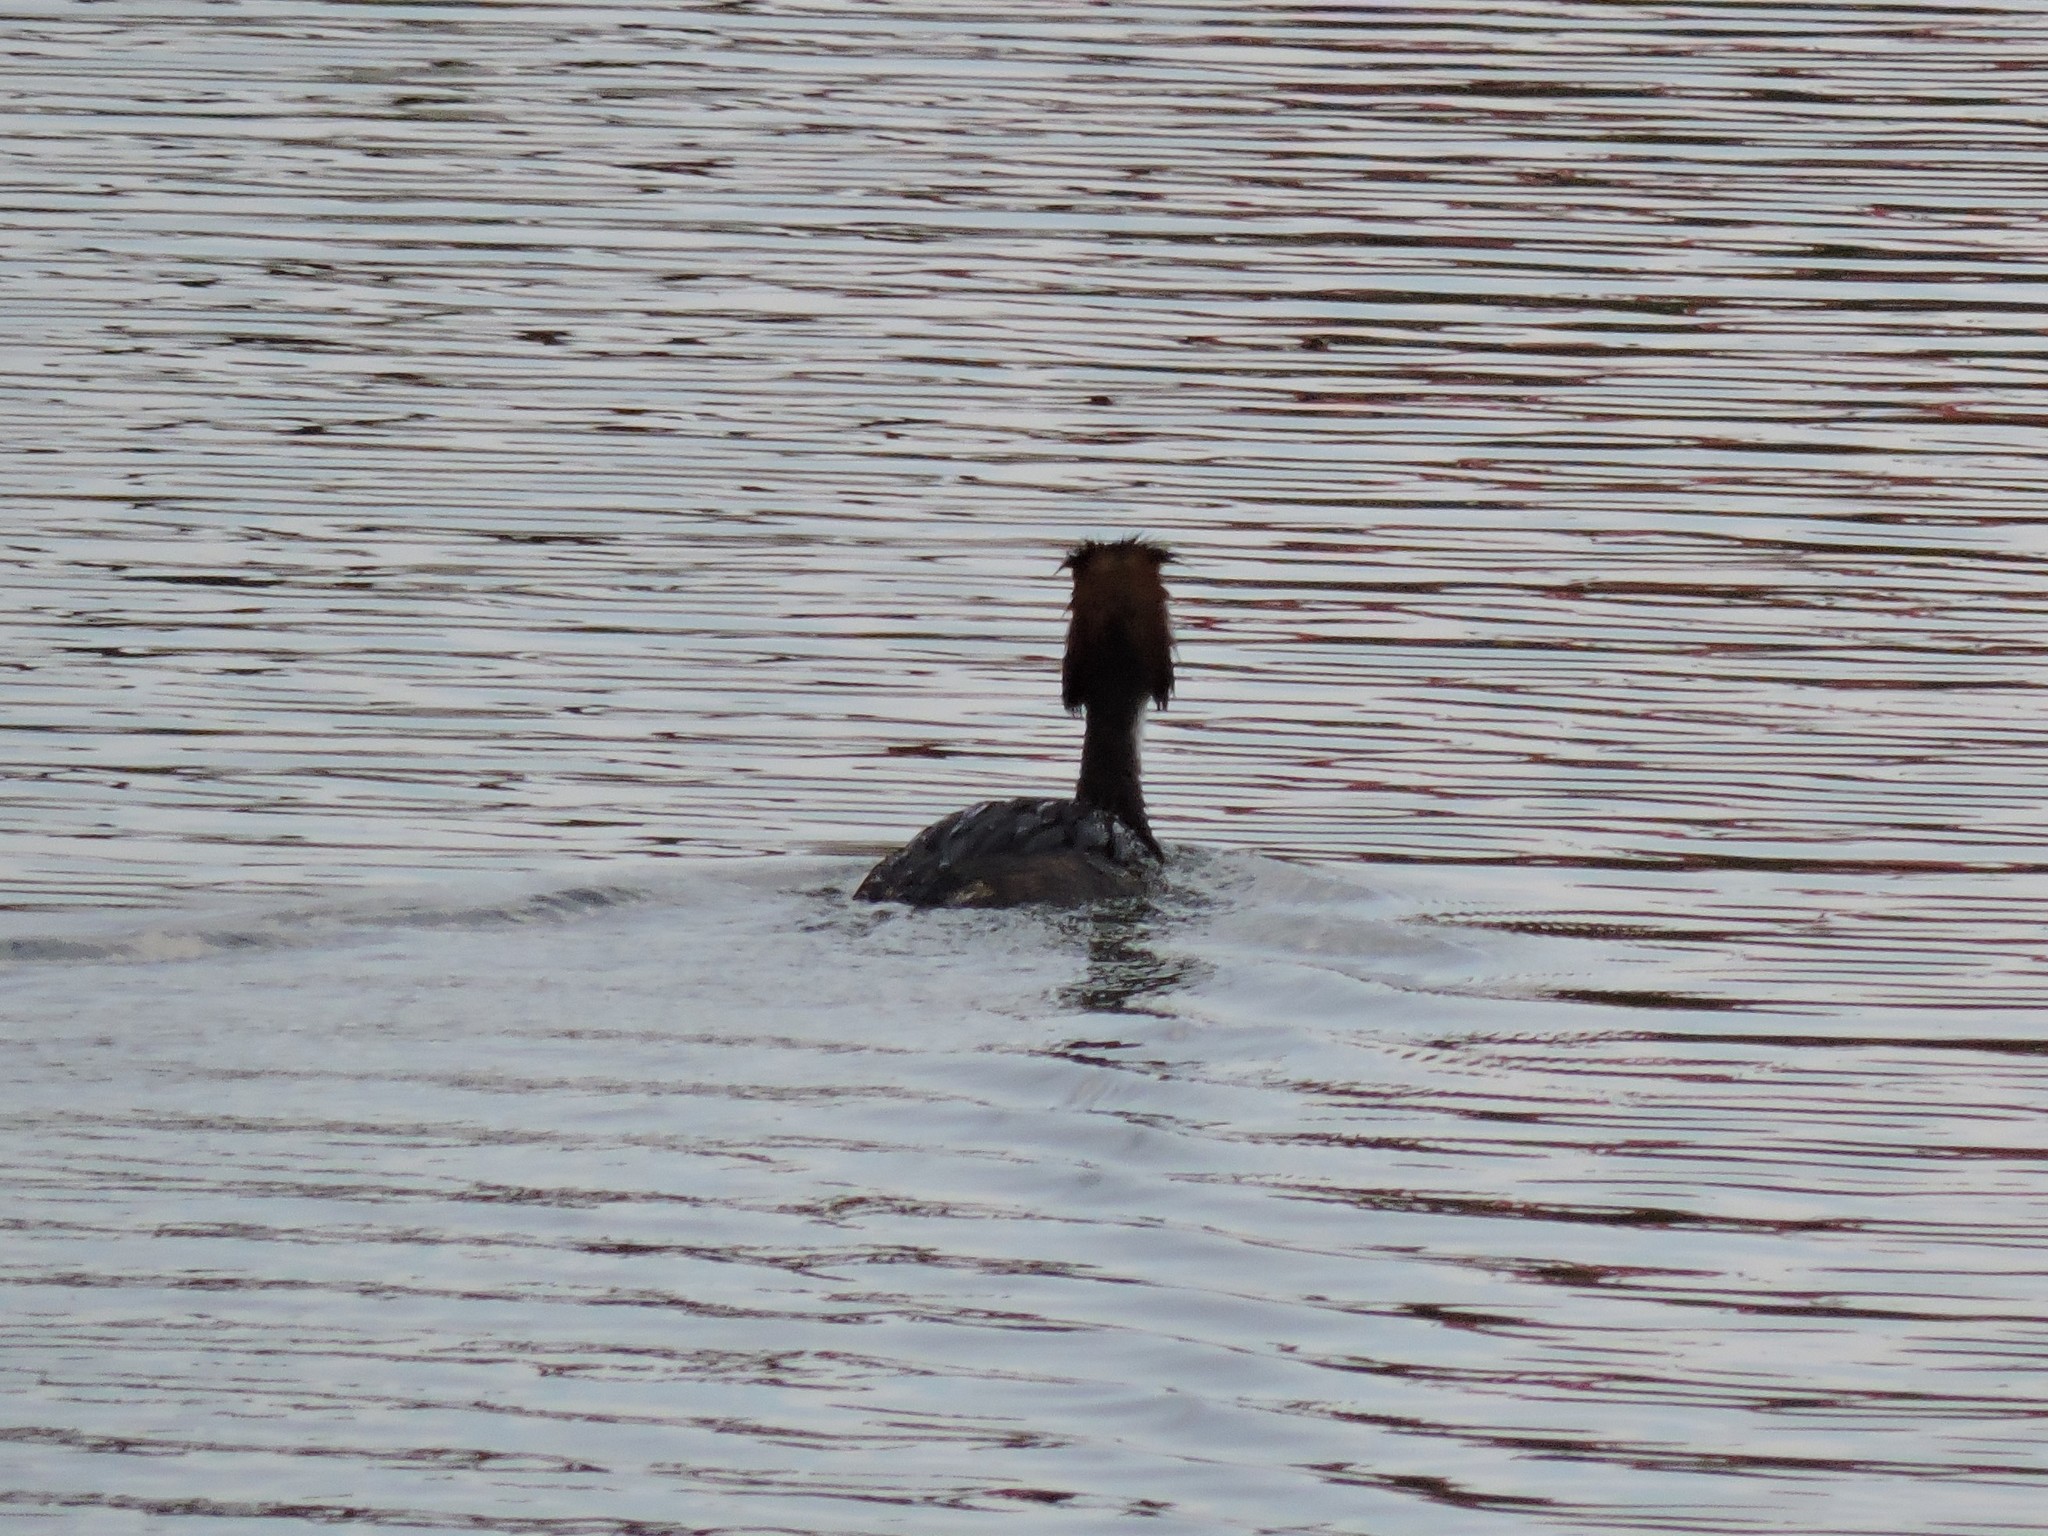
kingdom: Animalia
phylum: Chordata
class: Aves
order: Podicipediformes
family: Podicipedidae
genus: Podiceps
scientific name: Podiceps cristatus
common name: Great crested grebe
